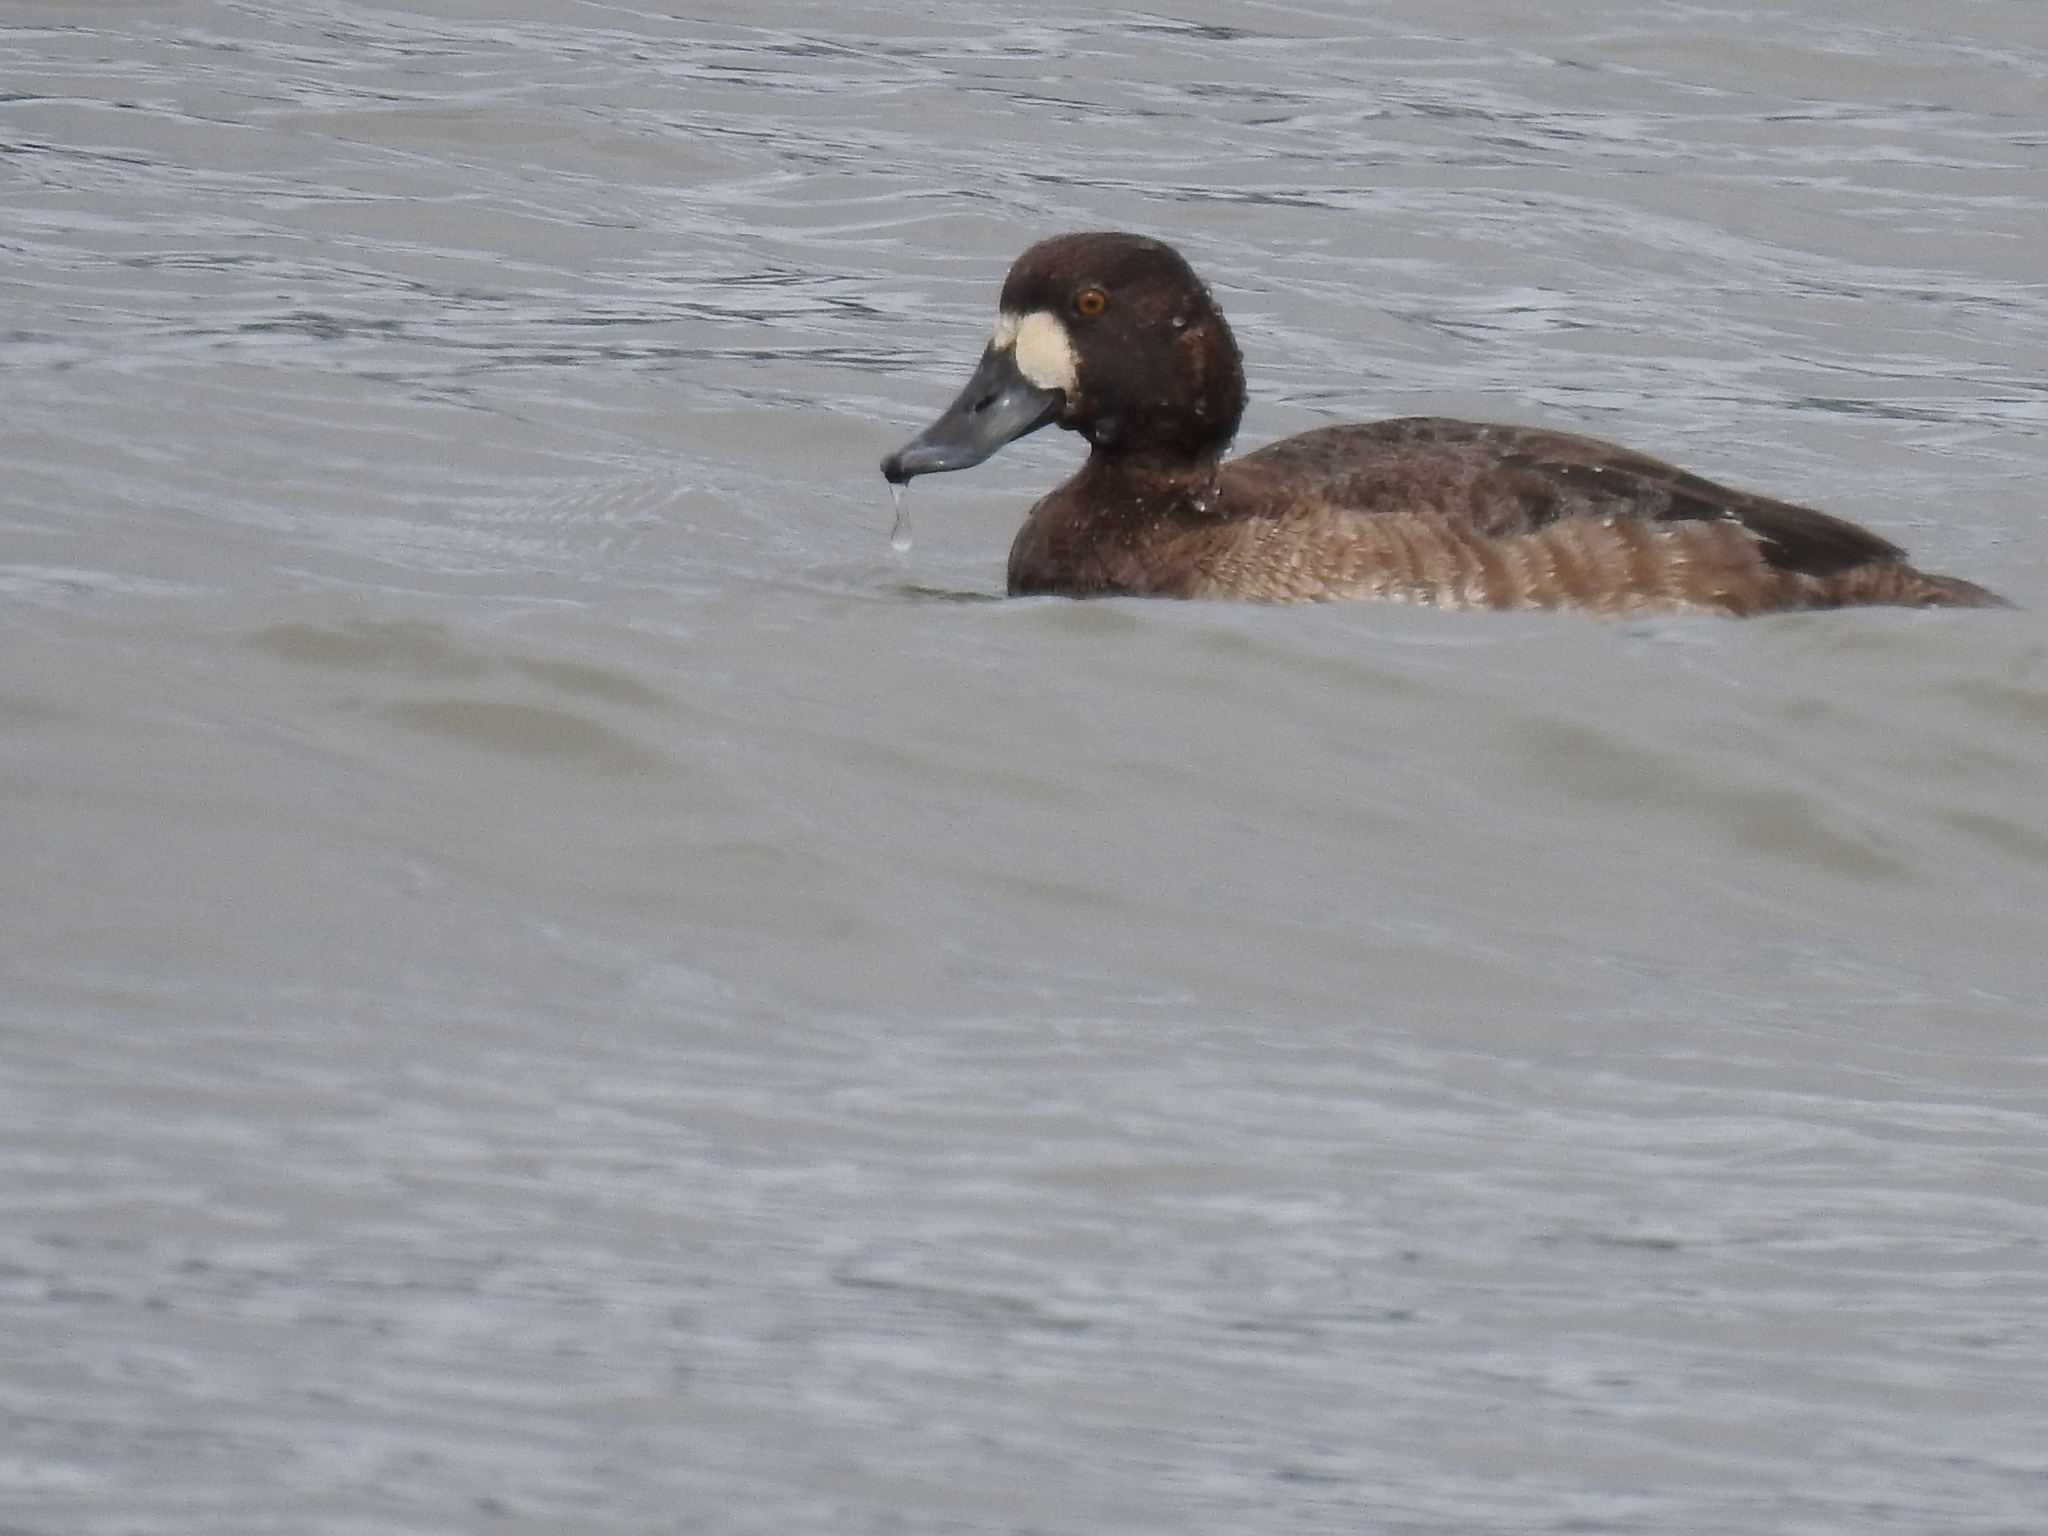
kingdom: Animalia
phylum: Chordata
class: Aves
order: Anseriformes
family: Anatidae
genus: Aythya
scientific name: Aythya marila
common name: Greater scaup
